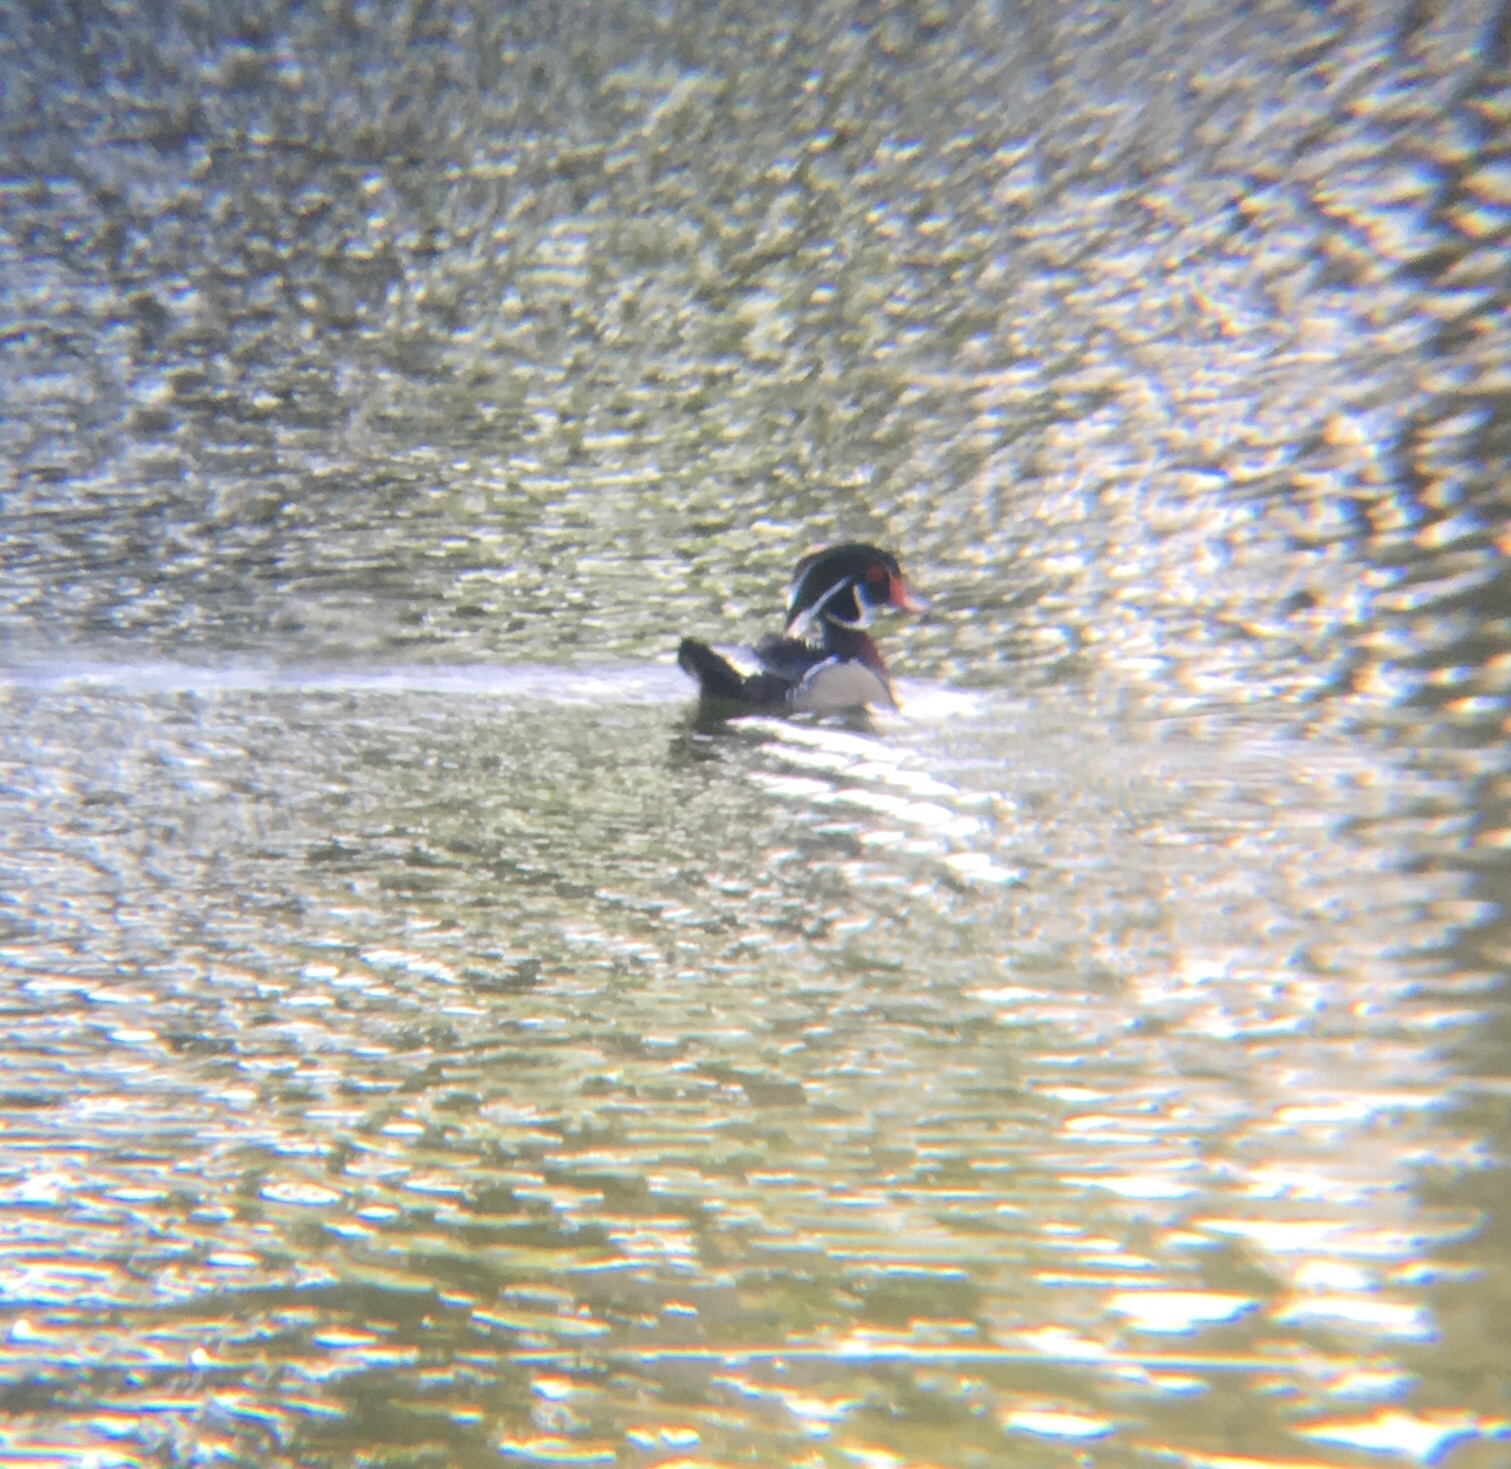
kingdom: Animalia
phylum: Chordata
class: Aves
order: Anseriformes
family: Anatidae
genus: Aix
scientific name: Aix sponsa
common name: Wood duck
